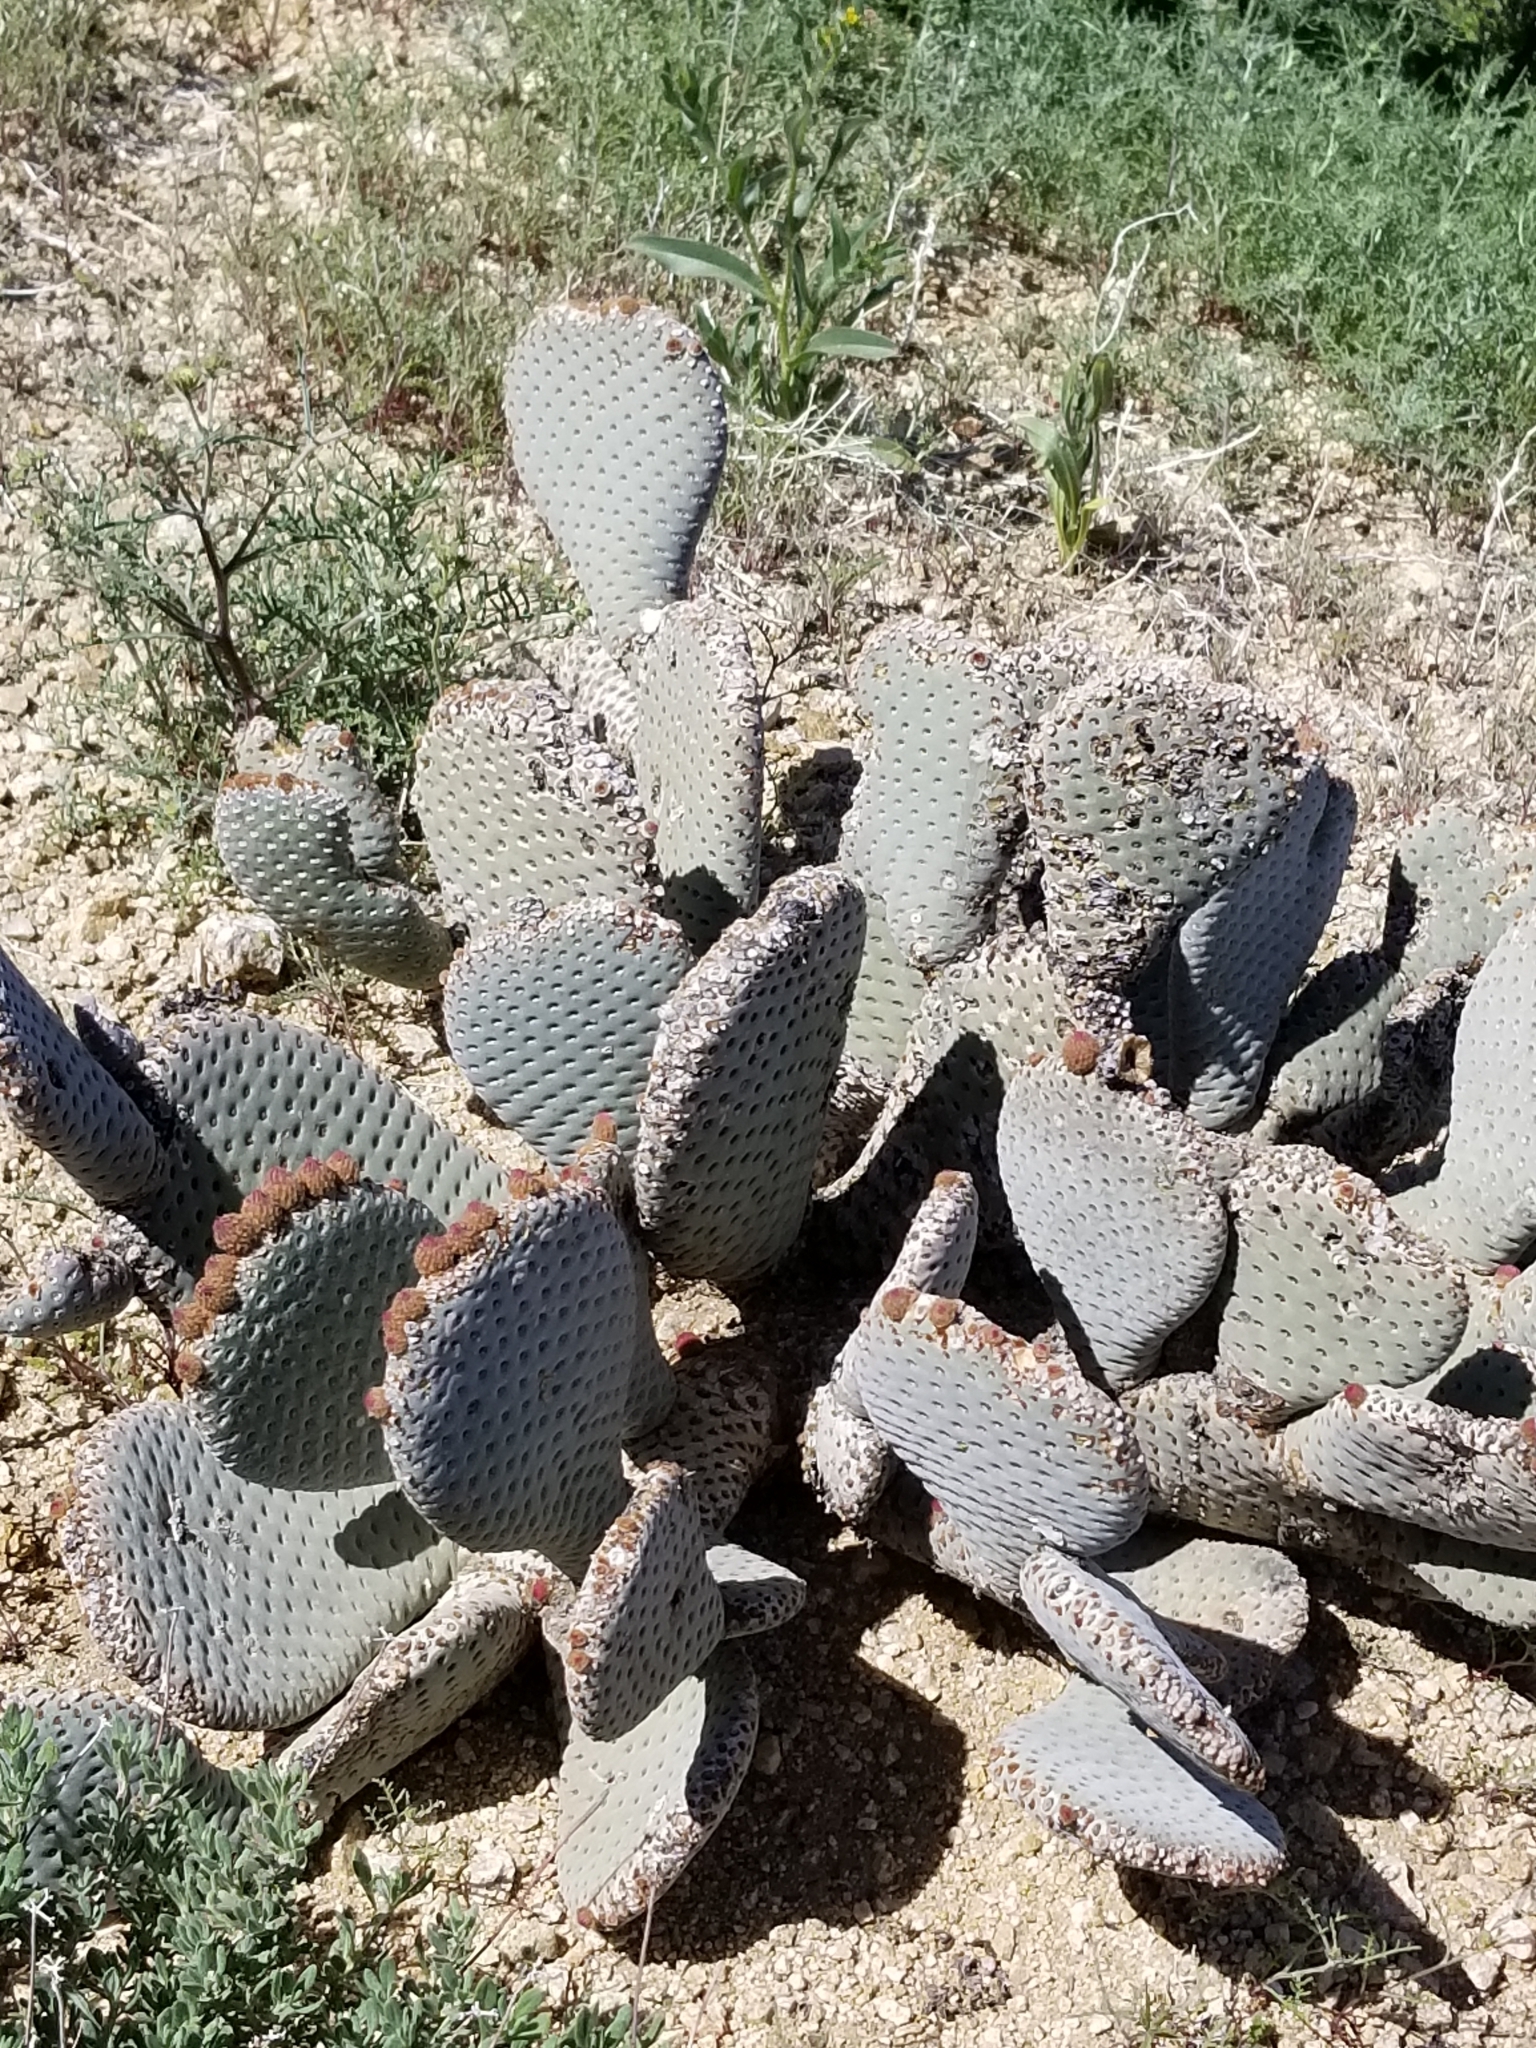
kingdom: Plantae
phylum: Tracheophyta
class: Magnoliopsida
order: Caryophyllales
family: Cactaceae
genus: Opuntia
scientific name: Opuntia basilaris
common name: Beavertail prickly-pear
